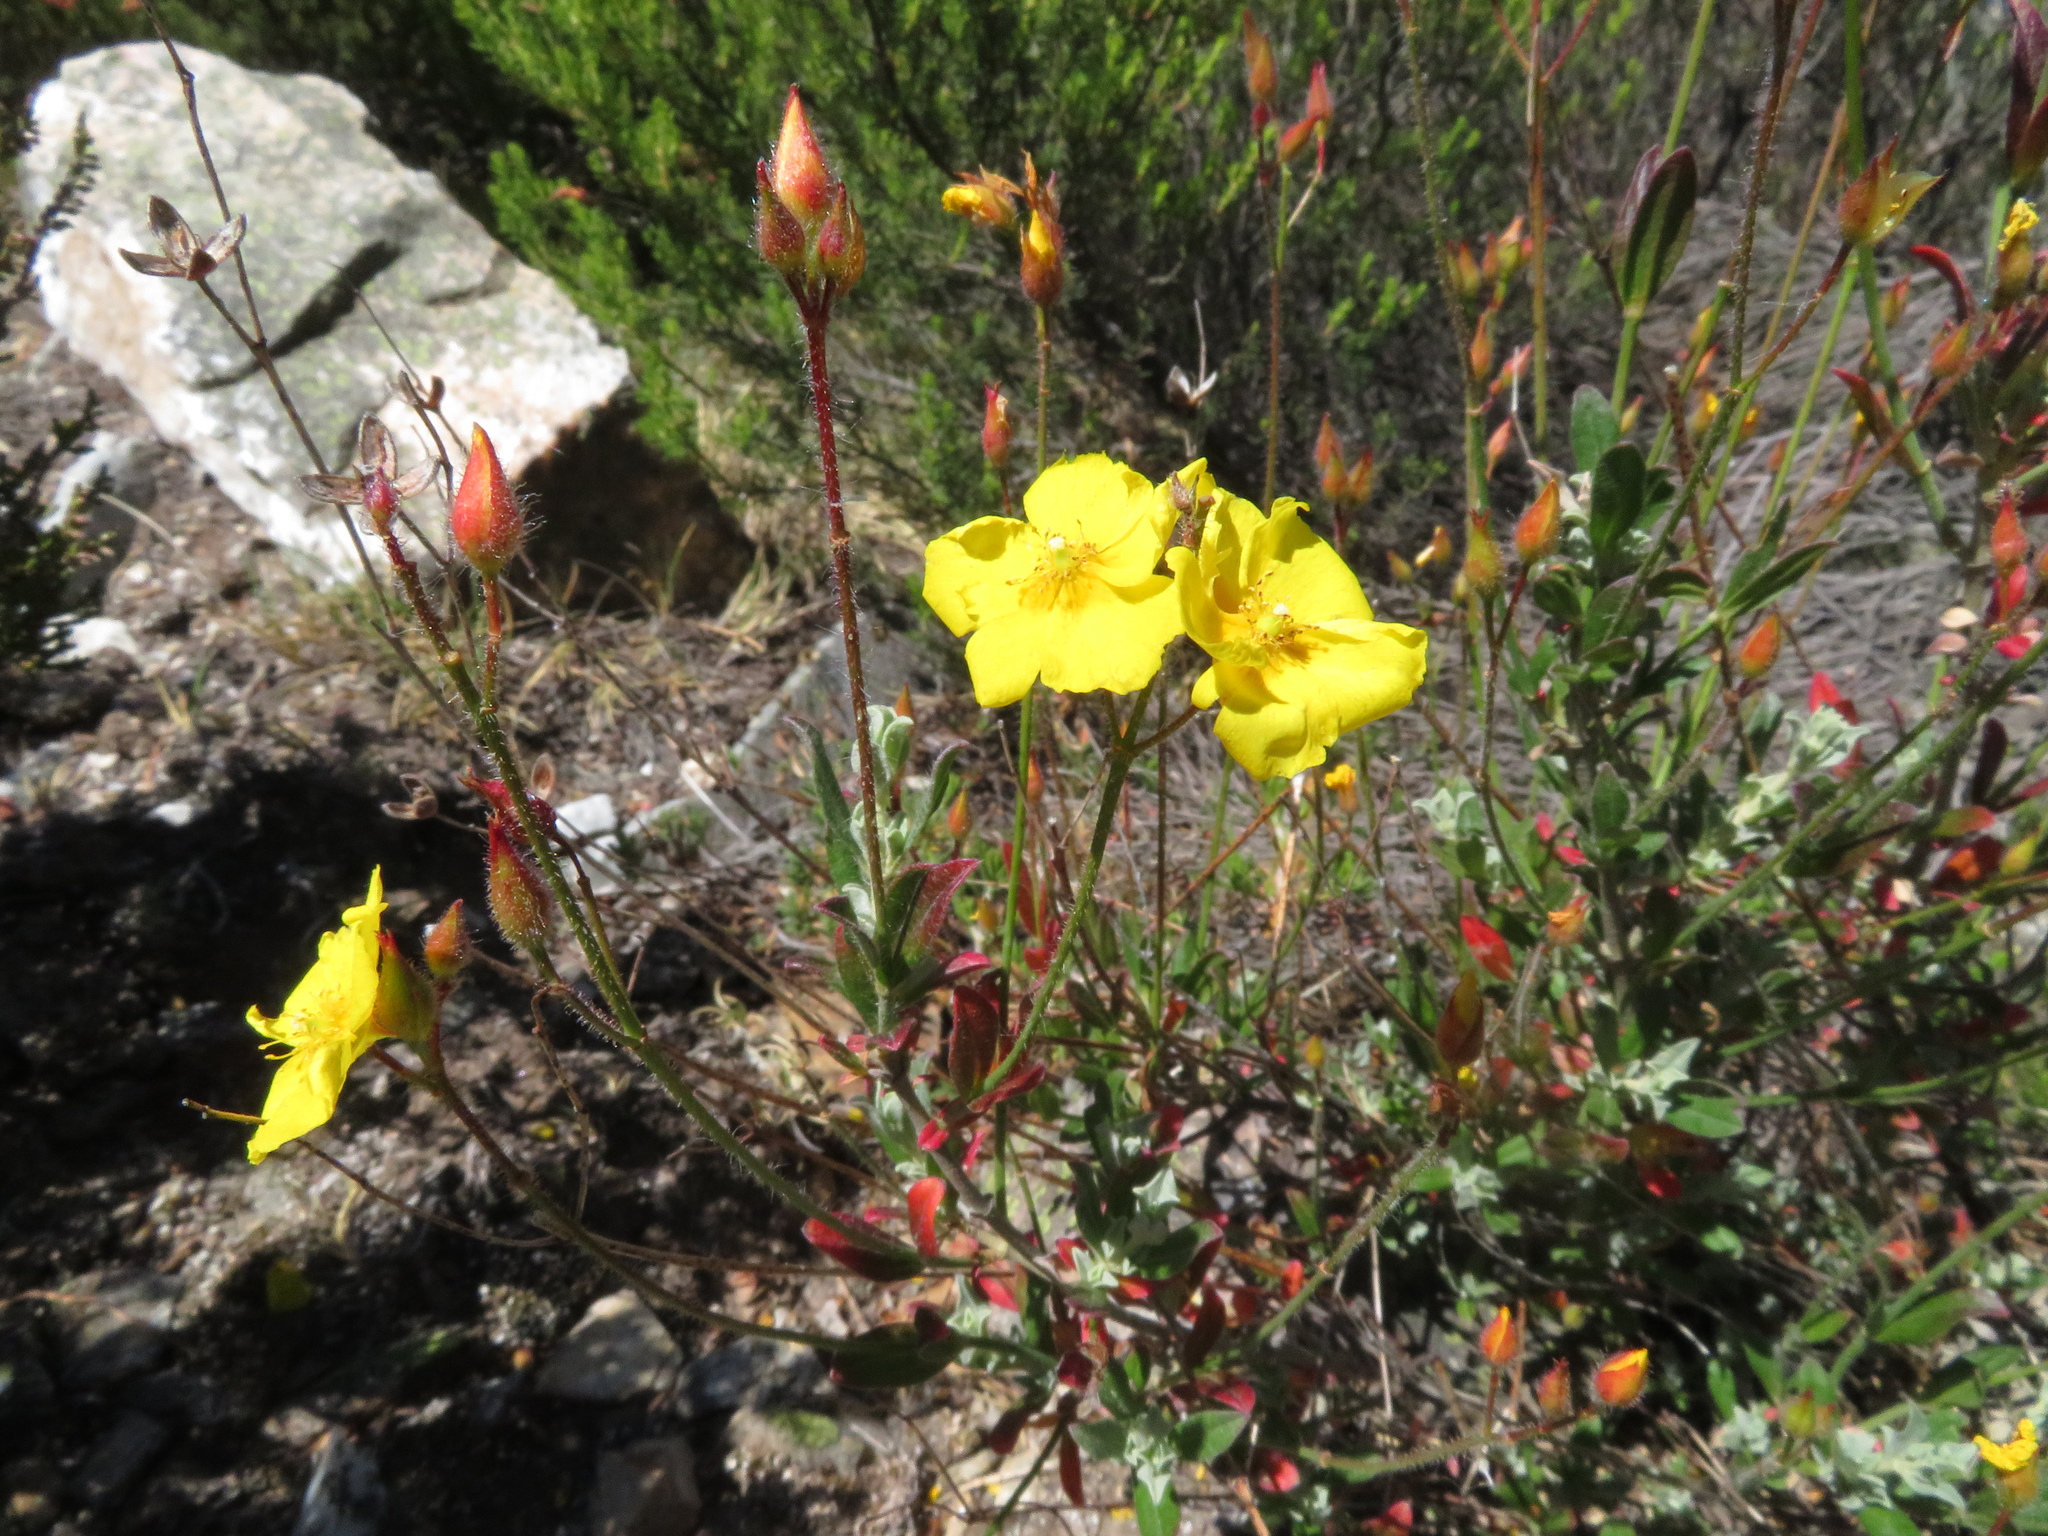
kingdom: Plantae
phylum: Tracheophyta
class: Magnoliopsida
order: Malvales
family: Cistaceae
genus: Cistus
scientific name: Cistus ocymoides
